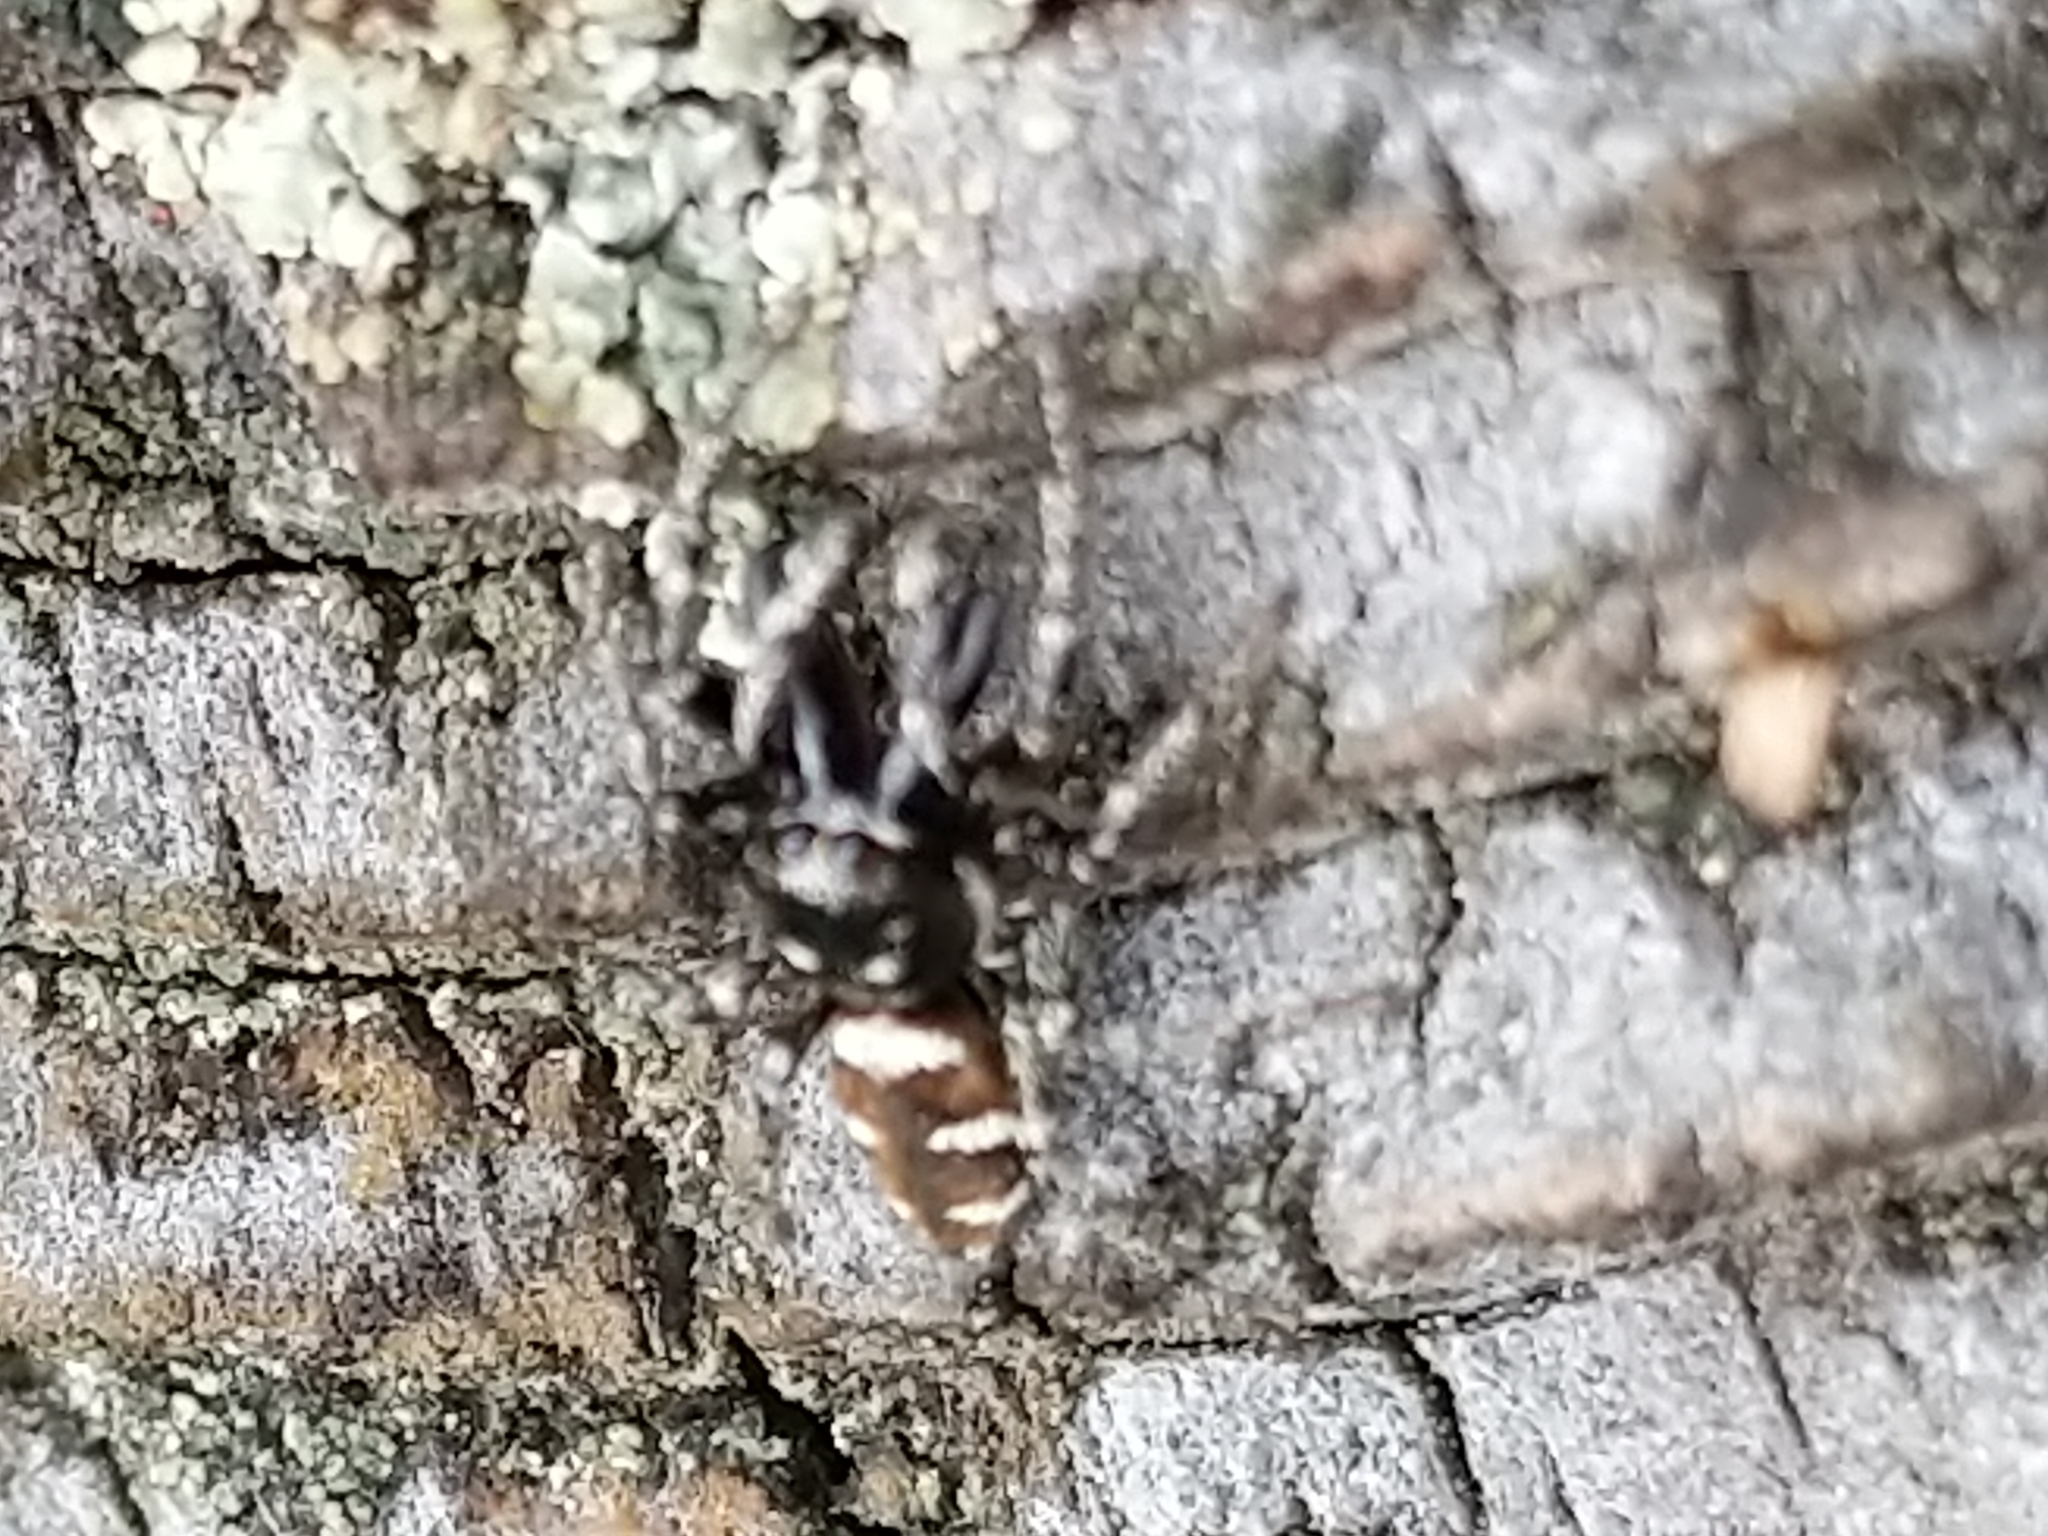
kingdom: Animalia
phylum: Arthropoda
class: Arachnida
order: Araneae
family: Salticidae
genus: Salticus
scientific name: Salticus scenicus
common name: Zebra jumper
